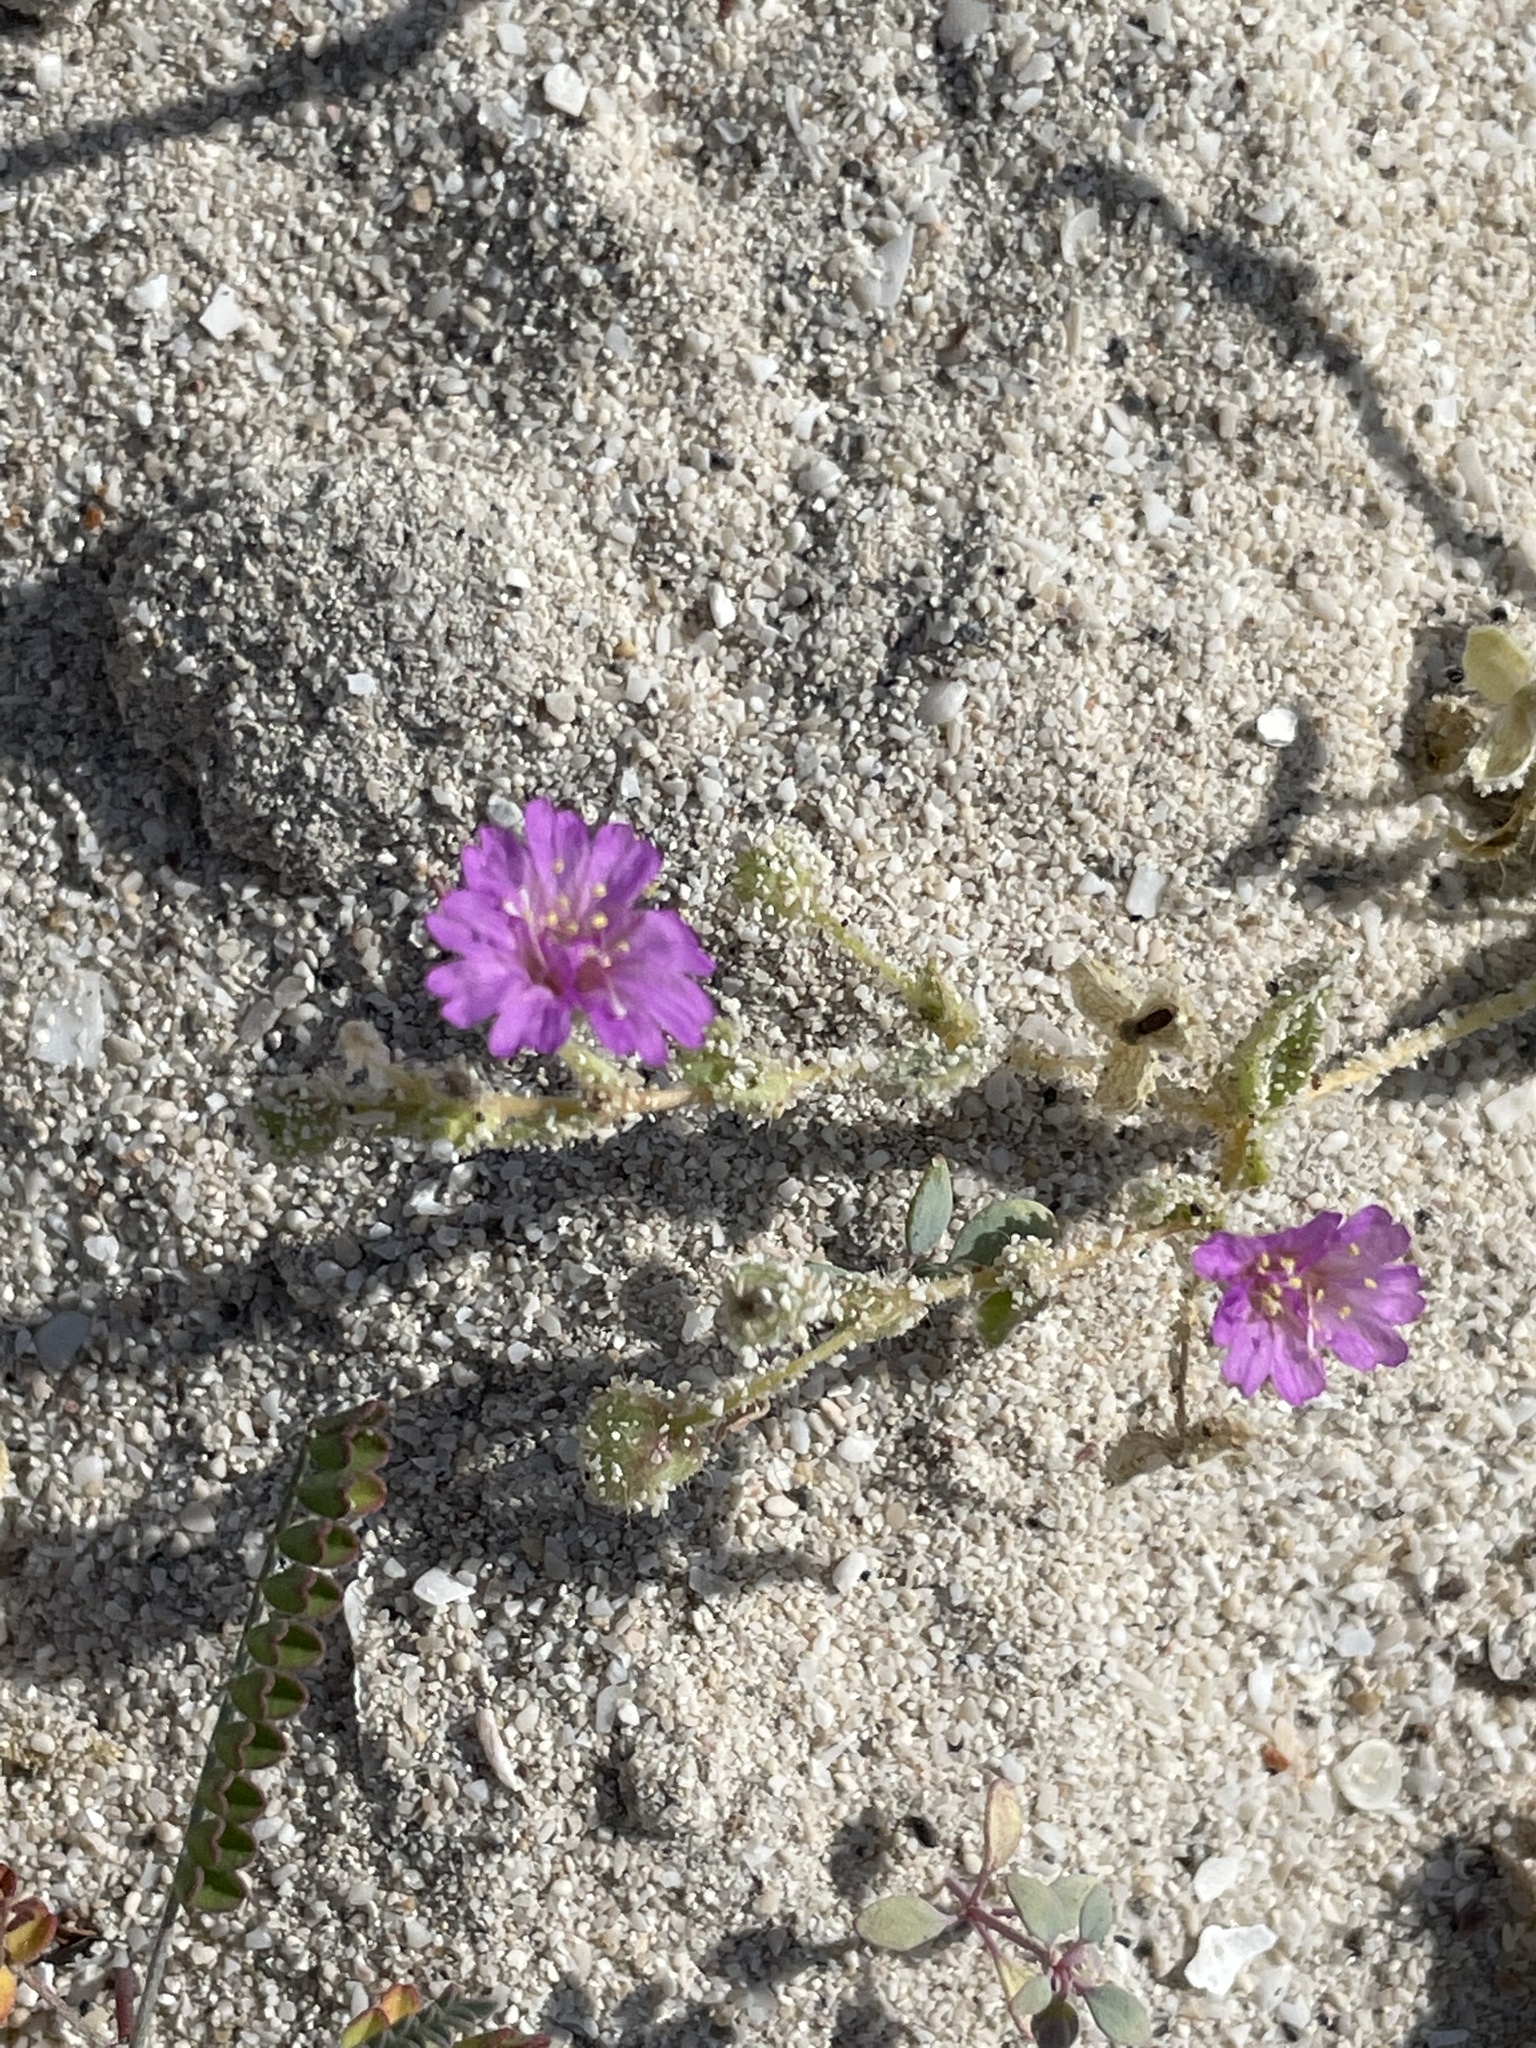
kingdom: Plantae
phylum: Tracheophyta
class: Magnoliopsida
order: Caryophyllales
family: Nyctaginaceae
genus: Allionia
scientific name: Allionia incarnata
